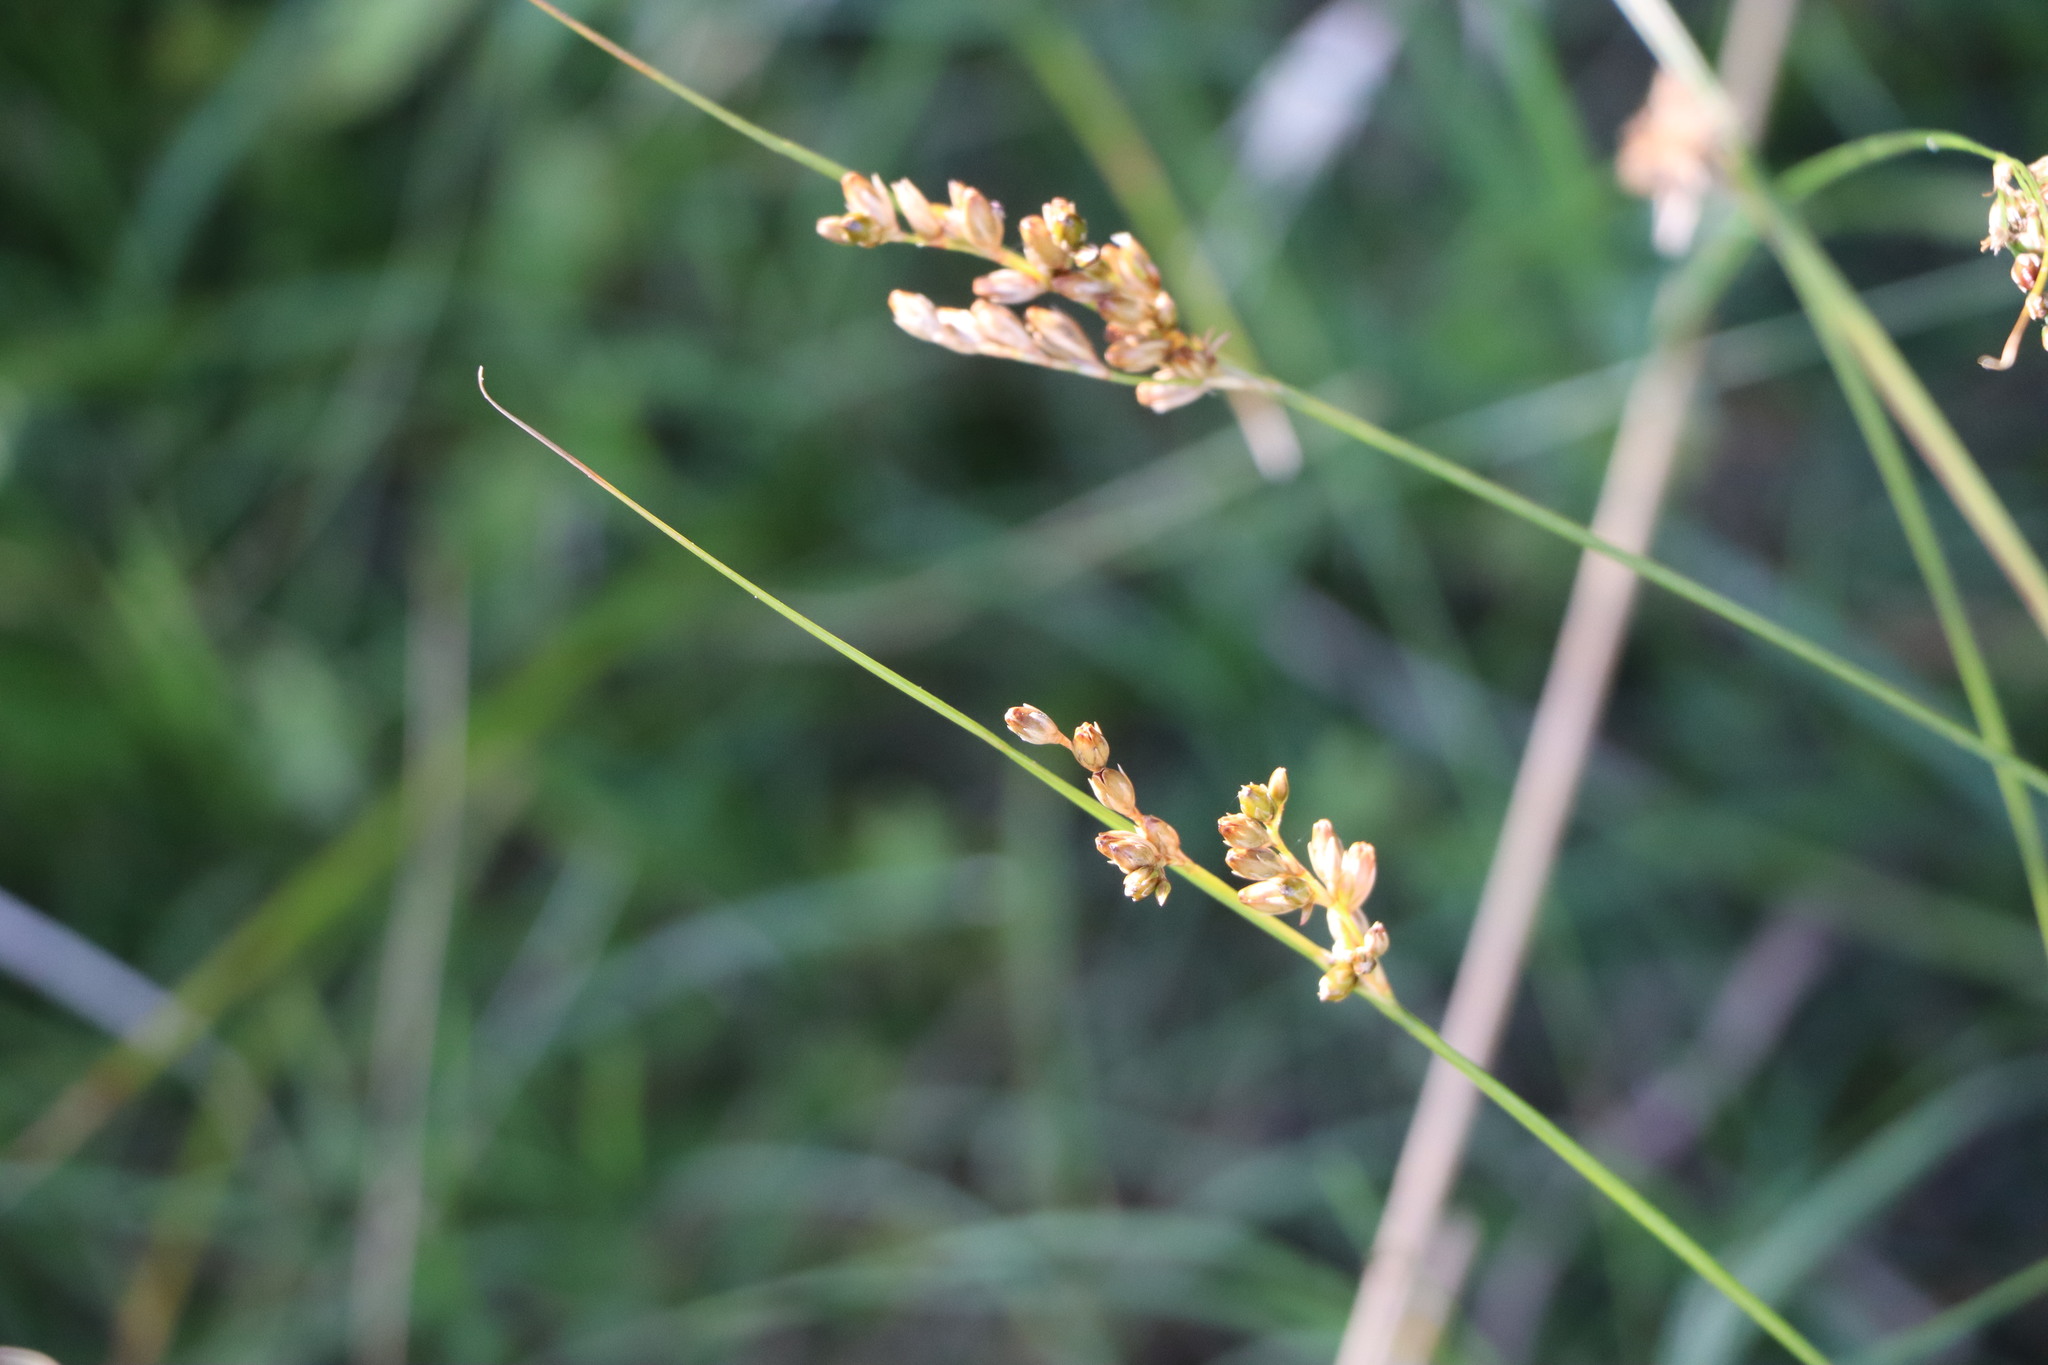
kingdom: Plantae
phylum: Tracheophyta
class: Liliopsida
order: Poales
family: Juncaceae
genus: Juncus
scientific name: Juncus imbricatus
